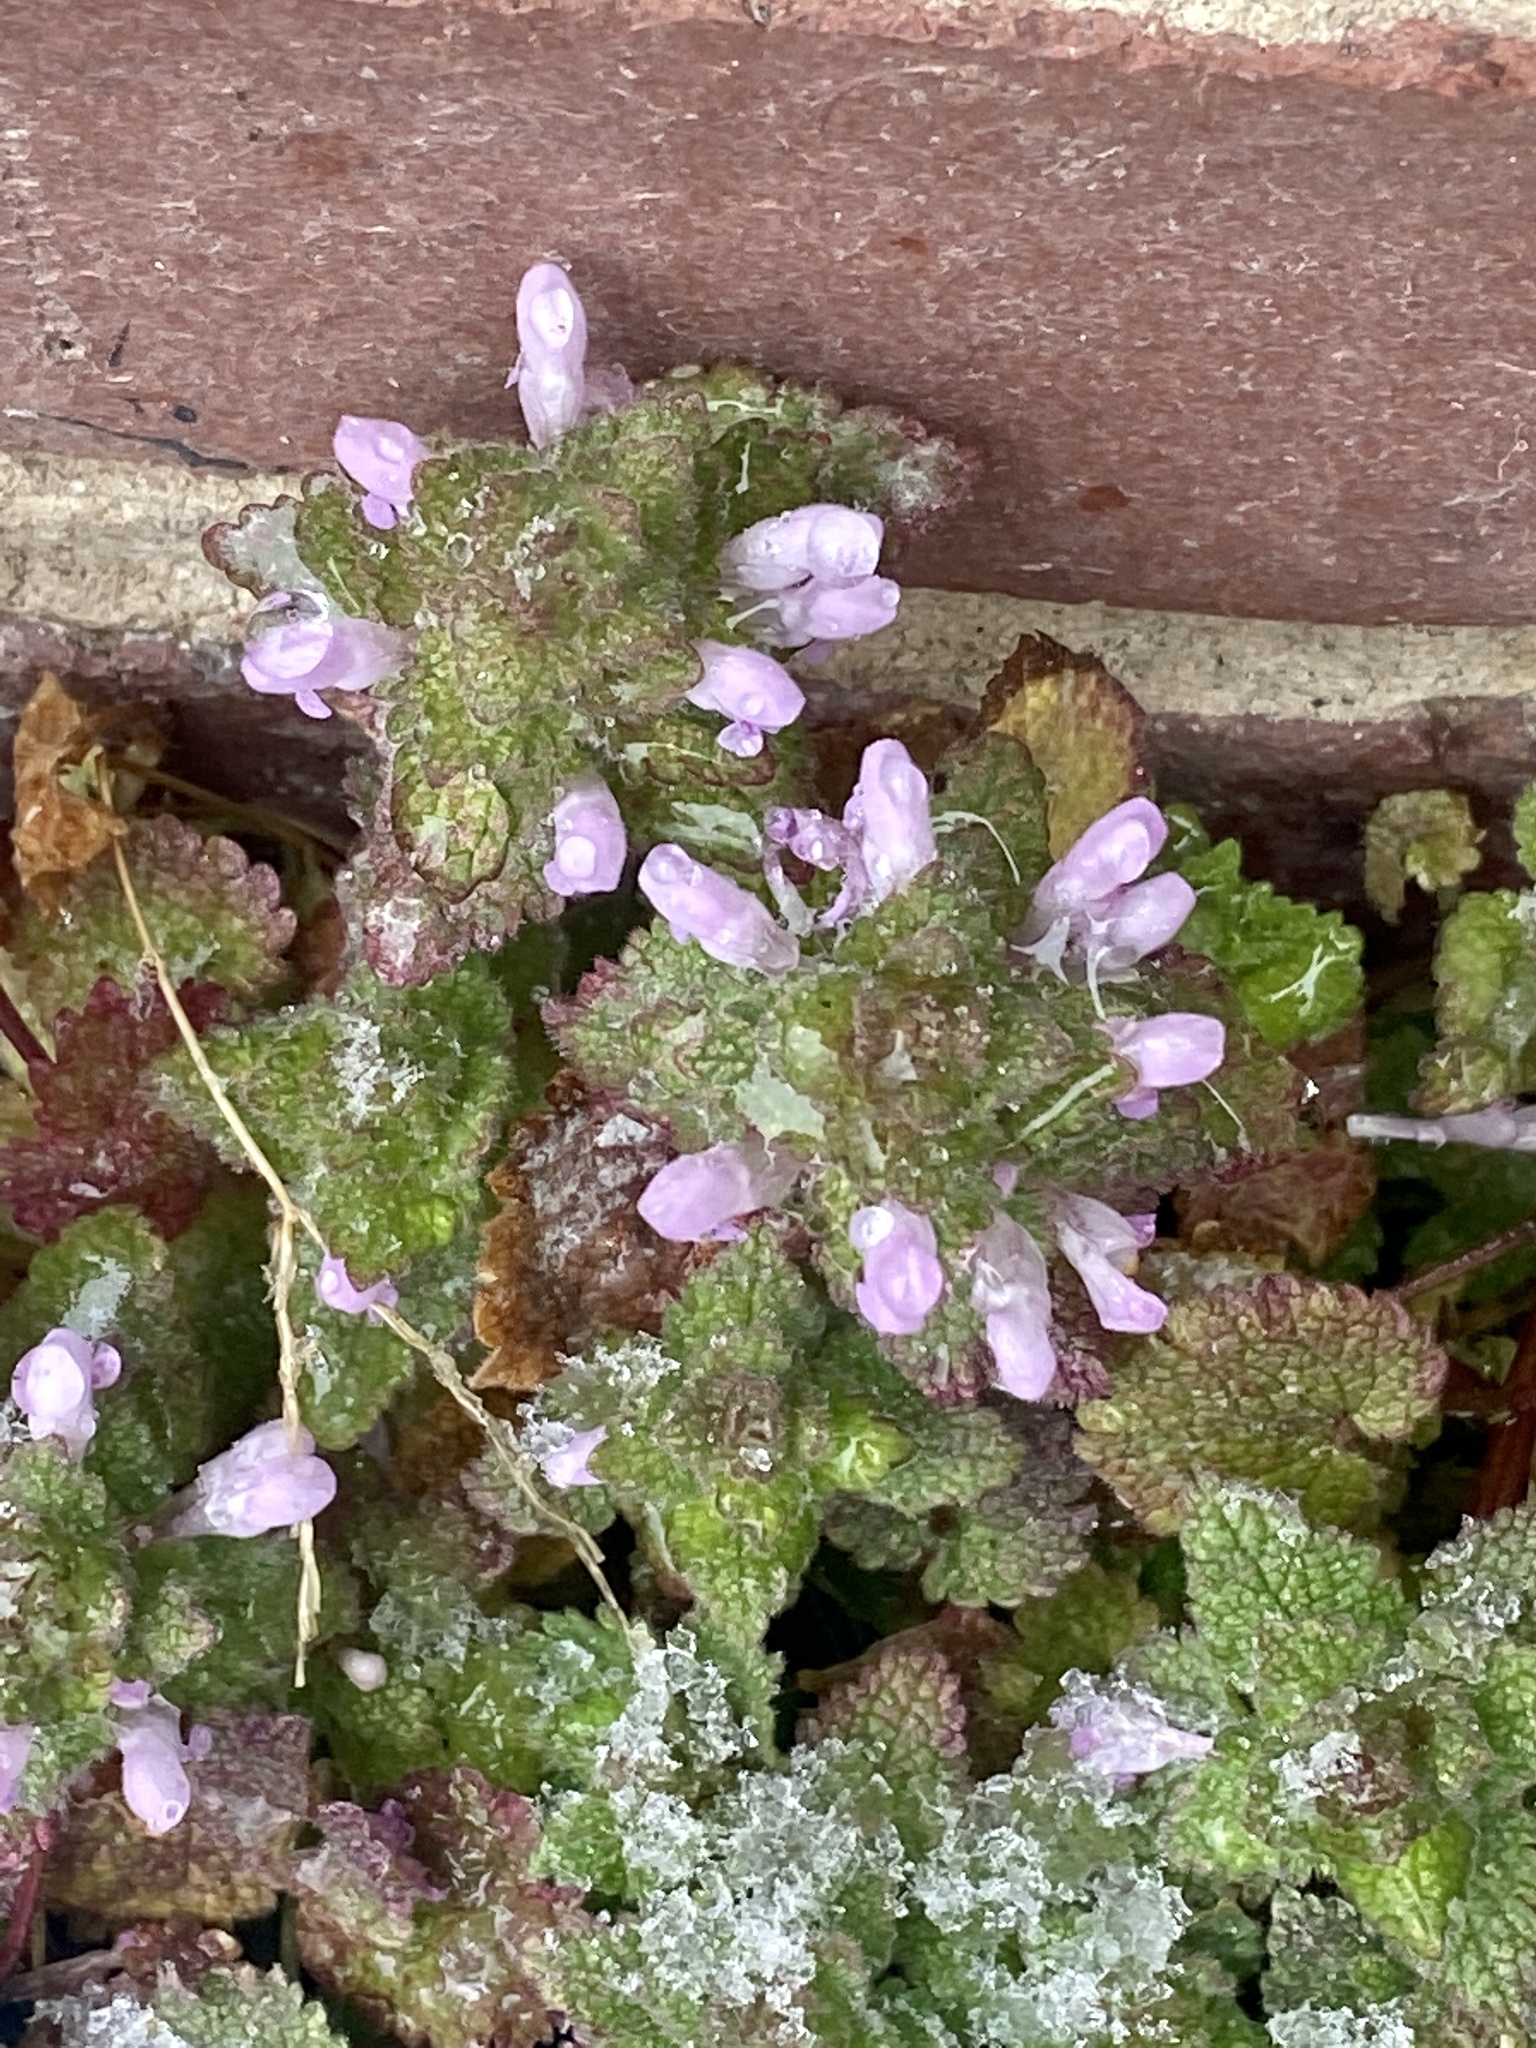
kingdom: Plantae
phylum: Tracheophyta
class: Magnoliopsida
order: Lamiales
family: Lamiaceae
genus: Lamium
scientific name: Lamium purpureum
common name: Red dead-nettle
